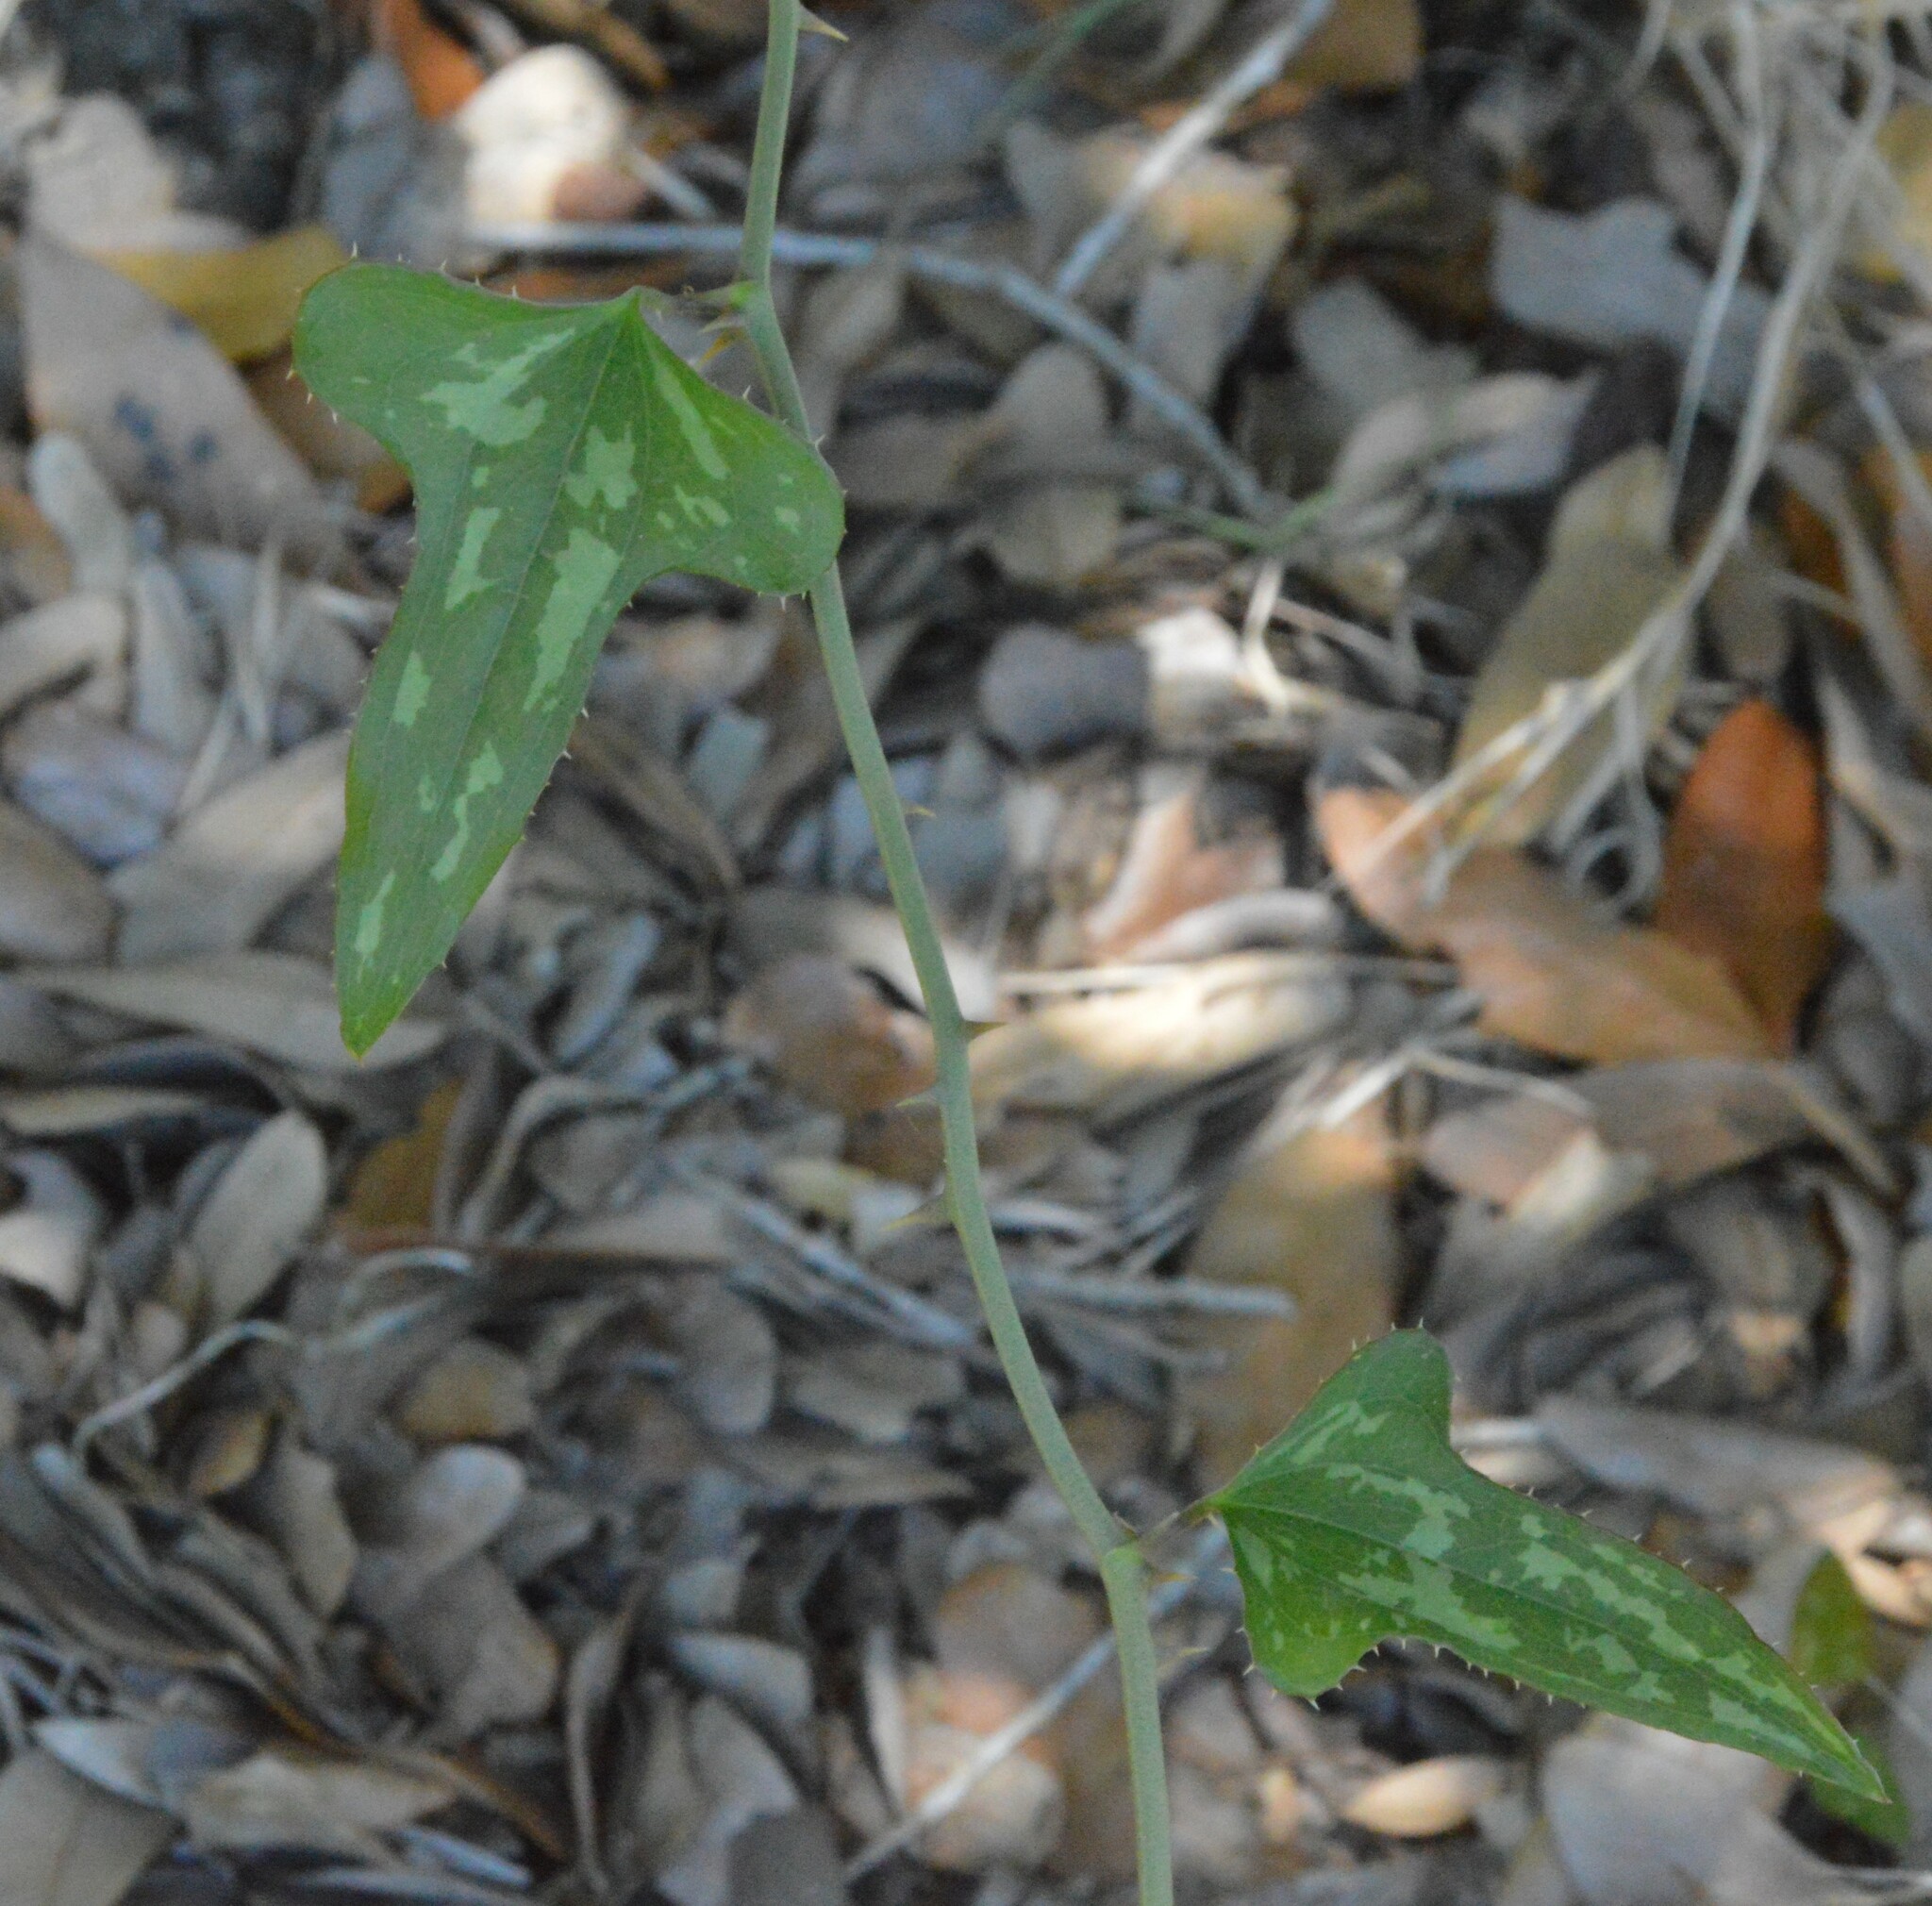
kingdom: Plantae
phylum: Tracheophyta
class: Liliopsida
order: Liliales
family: Smilacaceae
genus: Smilax
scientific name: Smilax bona-nox
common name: Catbrier
